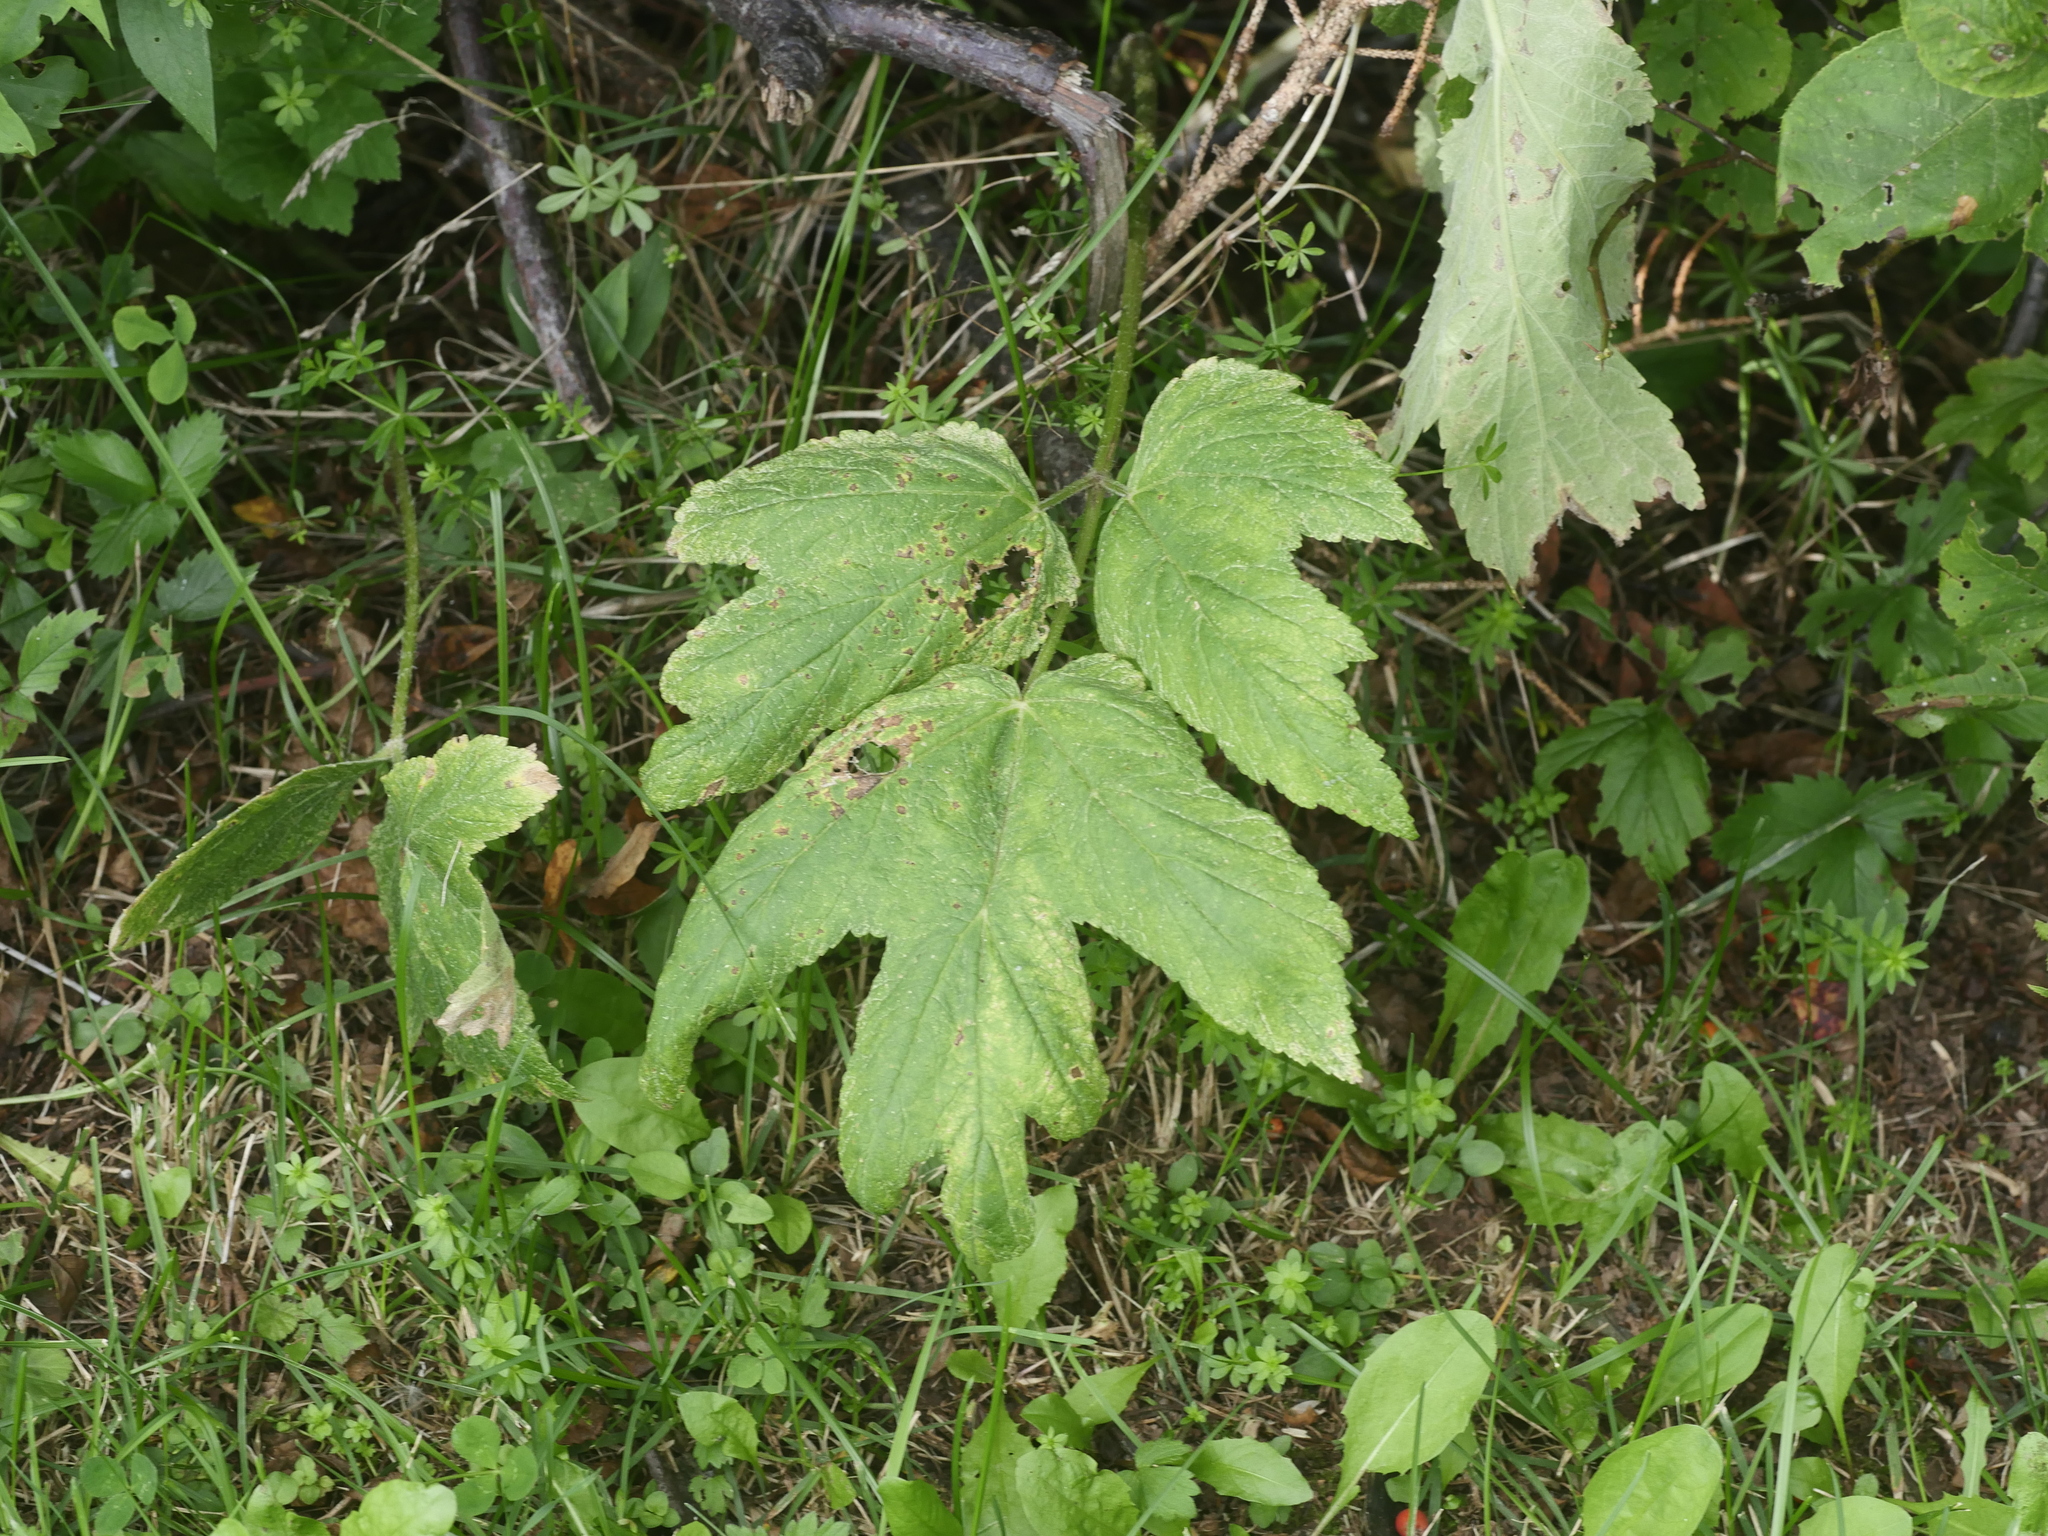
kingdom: Plantae
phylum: Tracheophyta
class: Magnoliopsida
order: Apiales
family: Apiaceae
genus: Heracleum
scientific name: Heracleum maximum
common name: American cow parsnip
